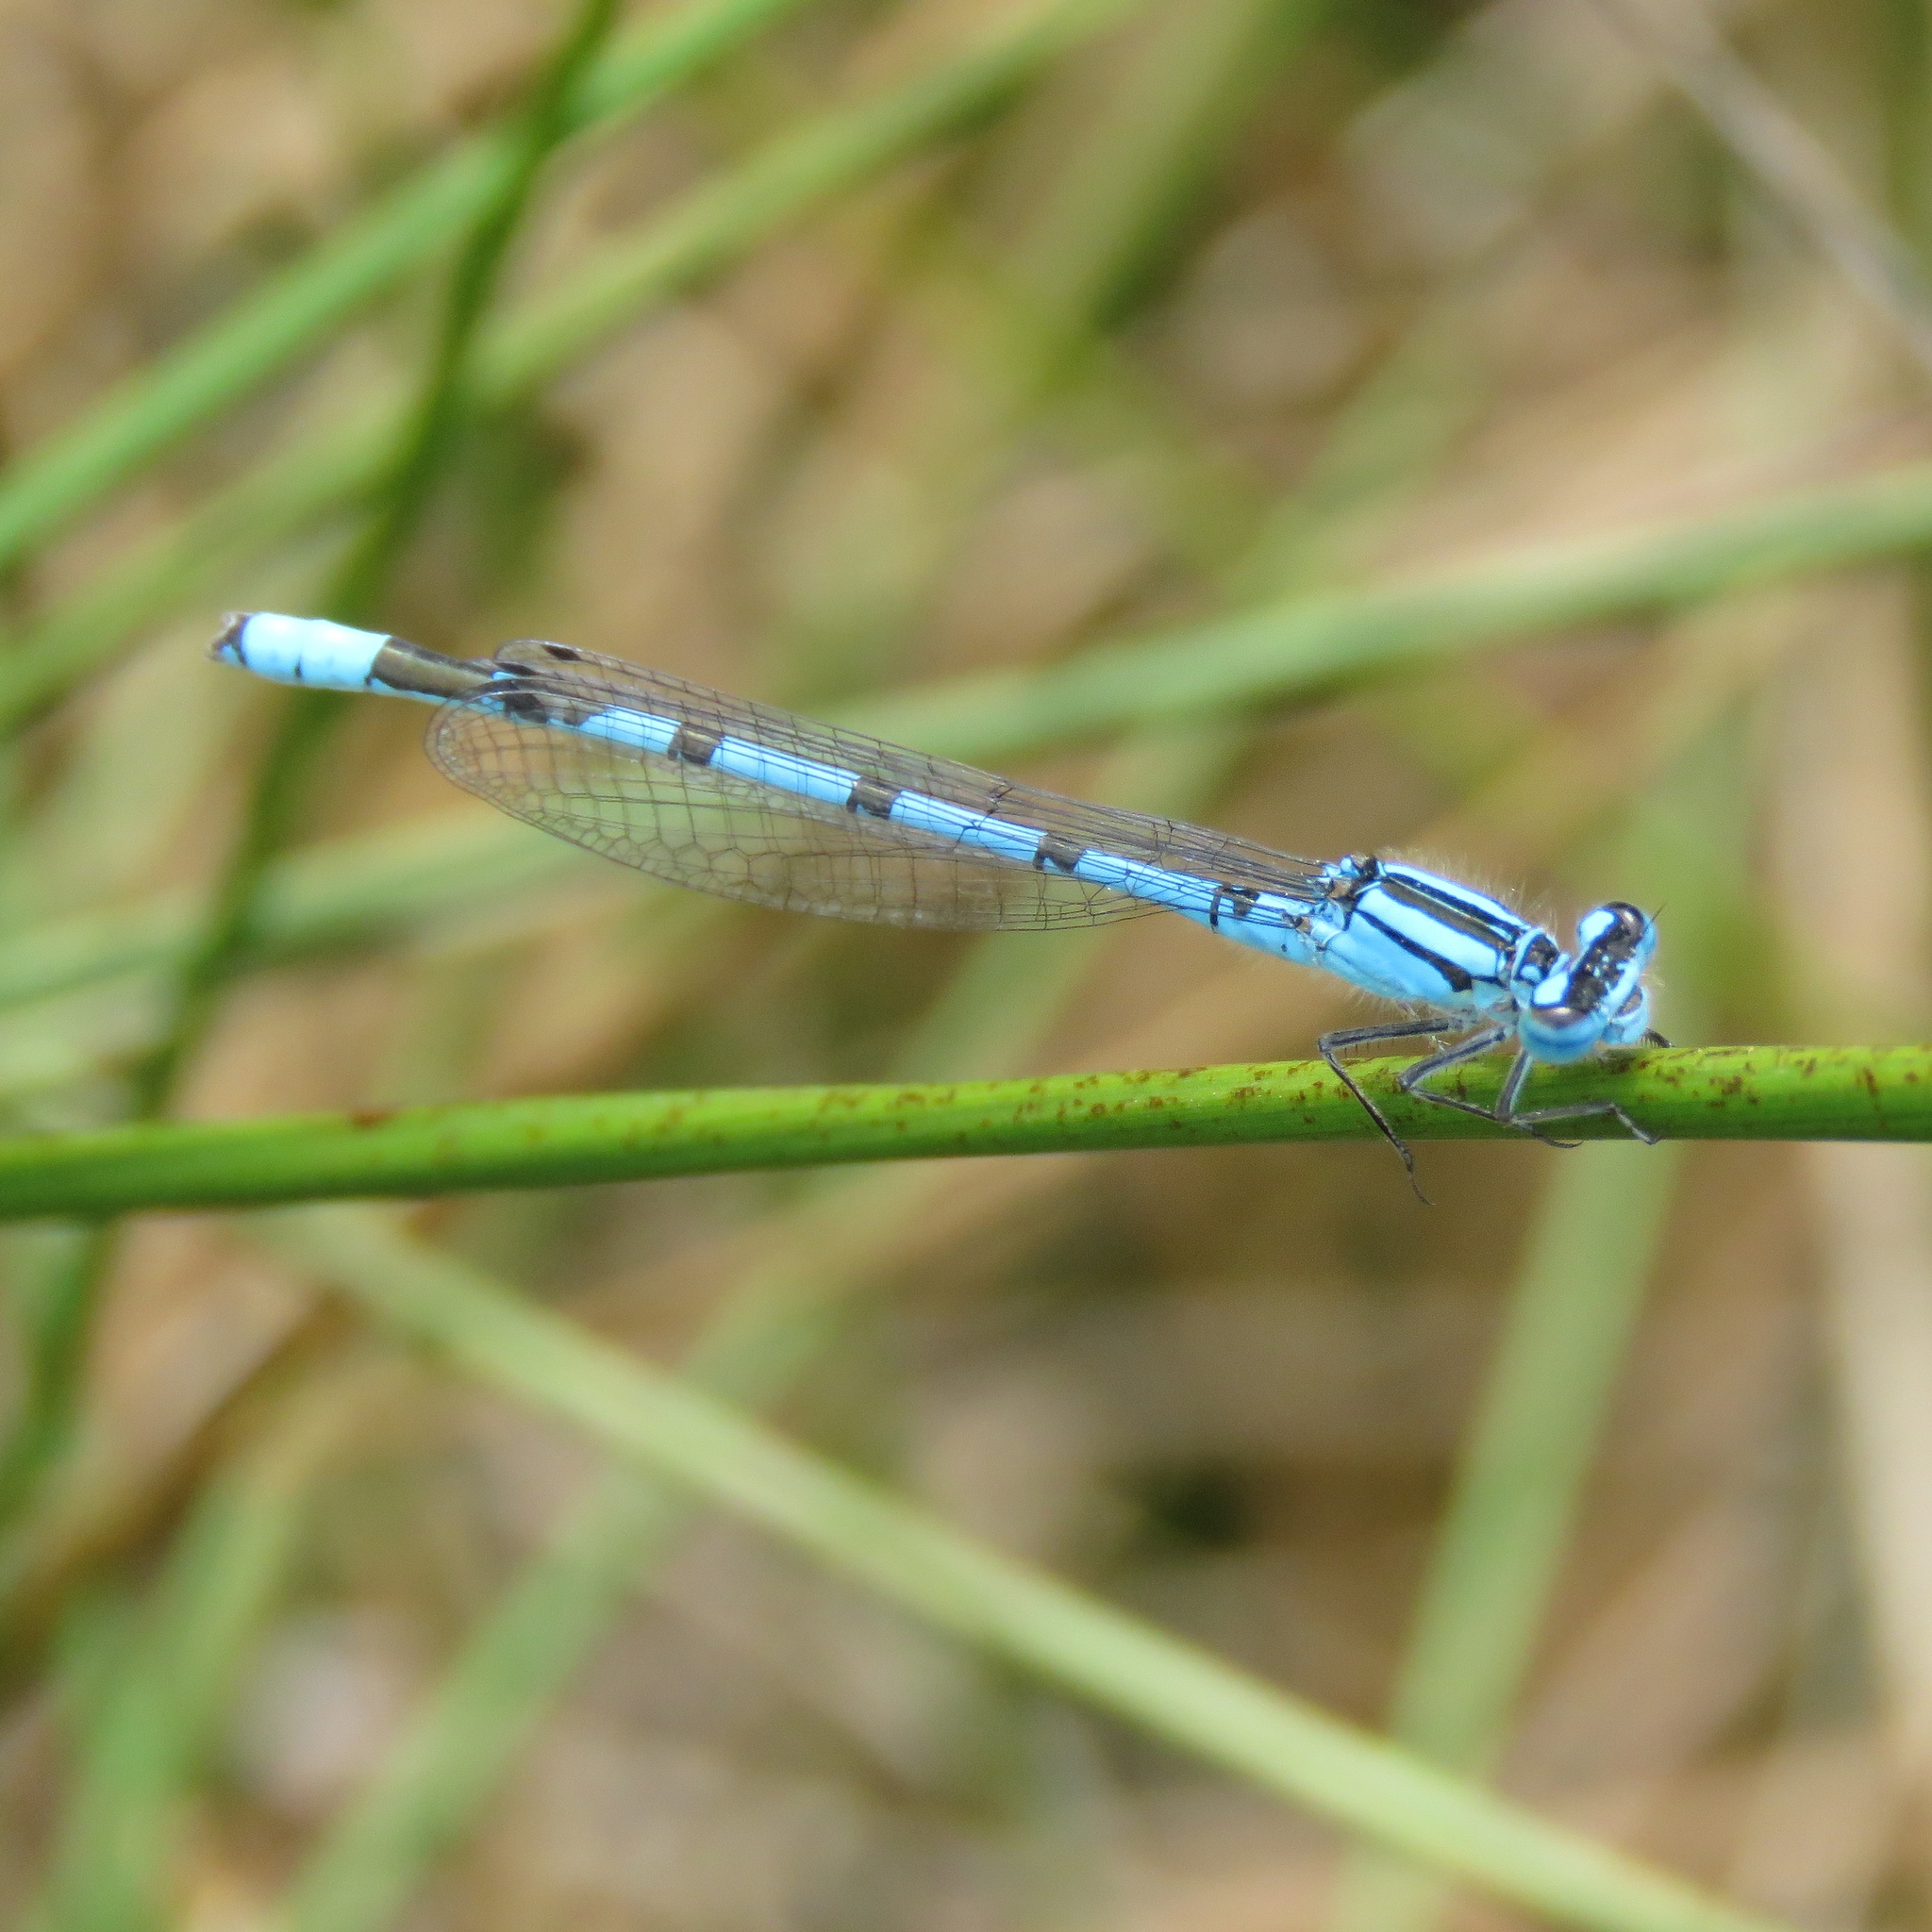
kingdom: Animalia
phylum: Arthropoda
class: Insecta
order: Odonata
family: Coenagrionidae
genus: Enallagma
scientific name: Enallagma cyathigerum
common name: Common blue damselfly
